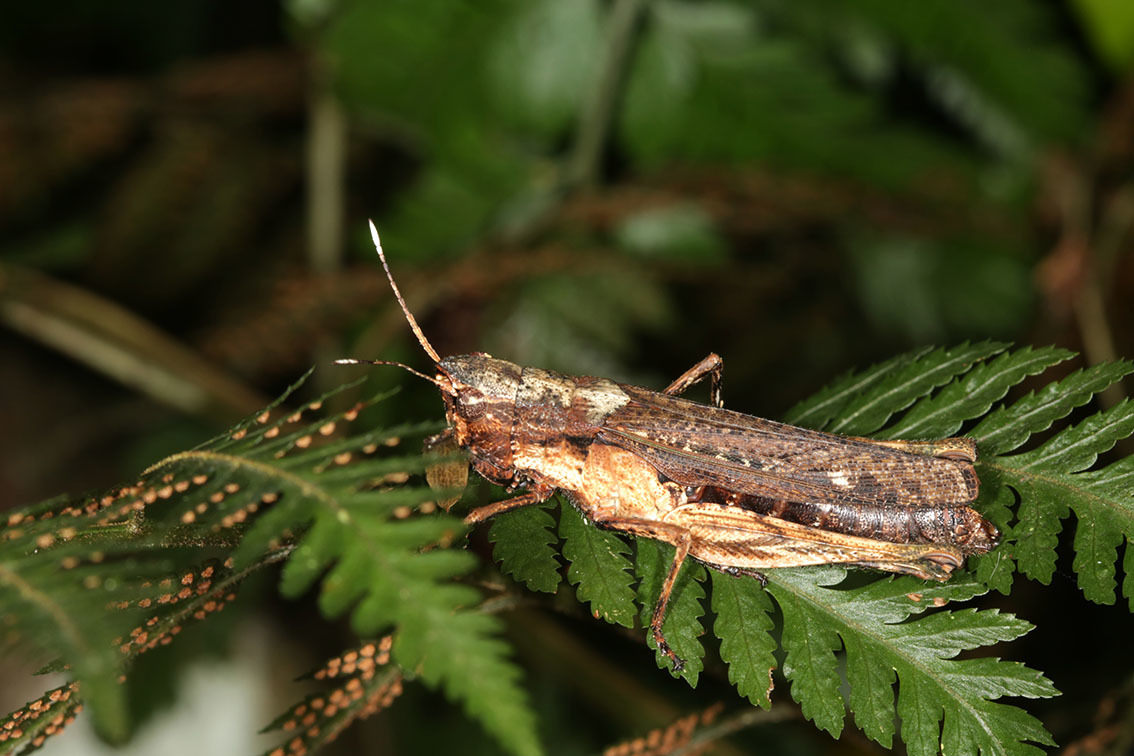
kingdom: Animalia
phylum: Arthropoda
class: Insecta
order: Orthoptera
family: Acrididae
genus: Peruvia
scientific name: Peruvia nigromarginata
